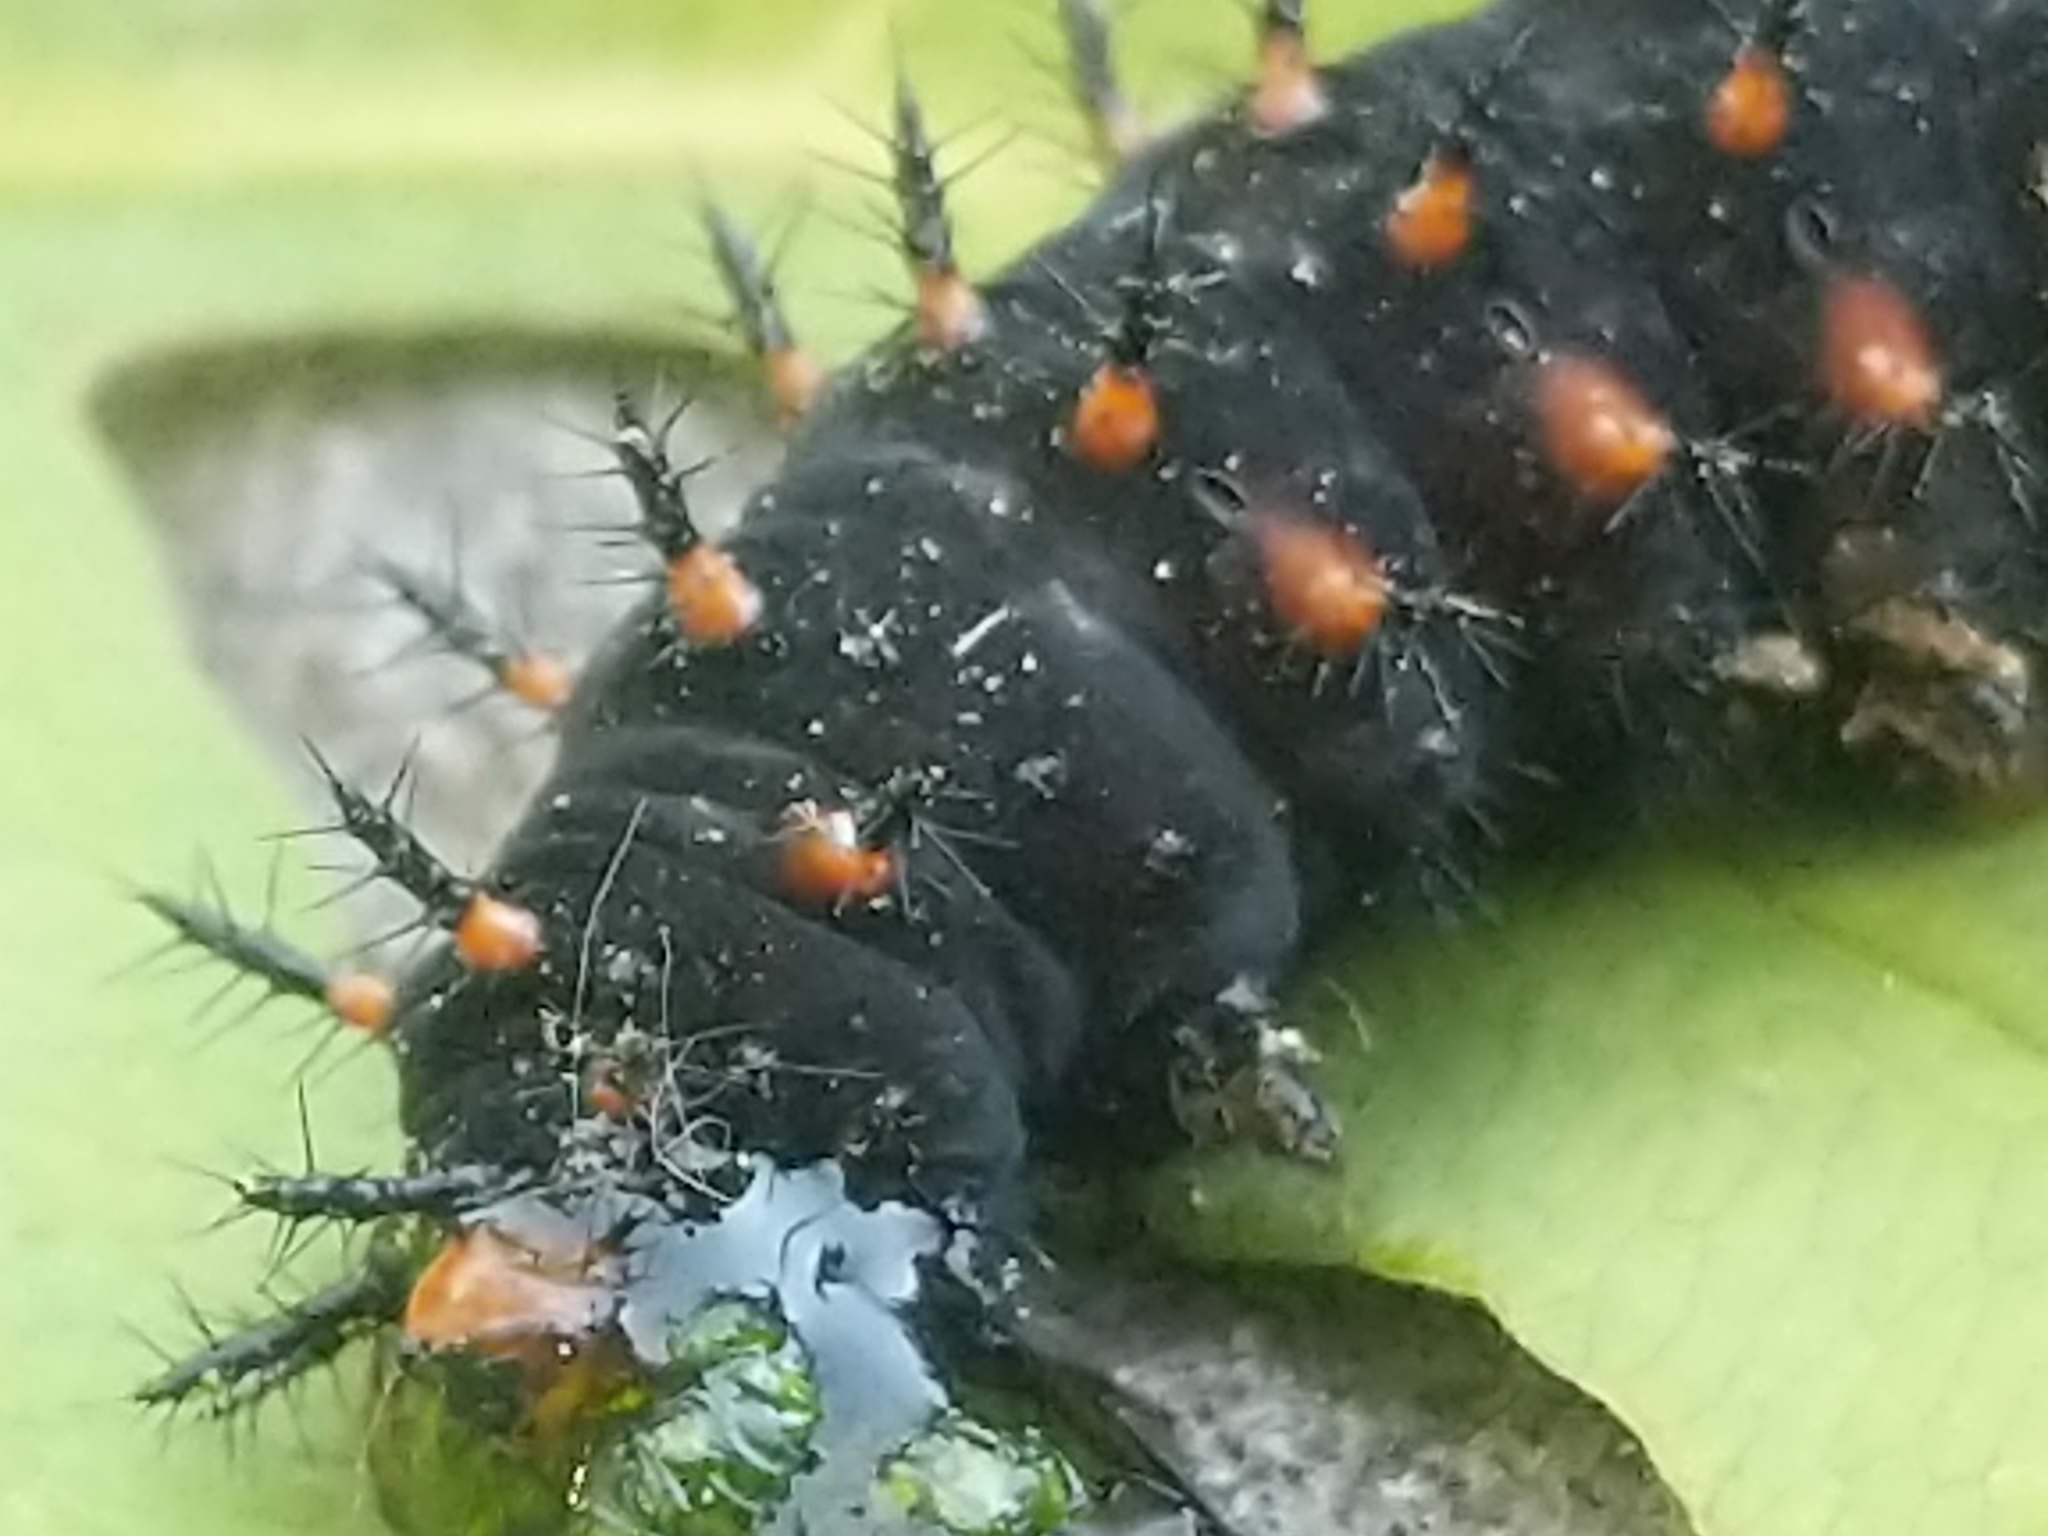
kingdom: Animalia
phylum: Arthropoda
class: Insecta
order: Lepidoptera
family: Nymphalidae
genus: Speyeria
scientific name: Speyeria cybele
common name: Great spangled fritillary
